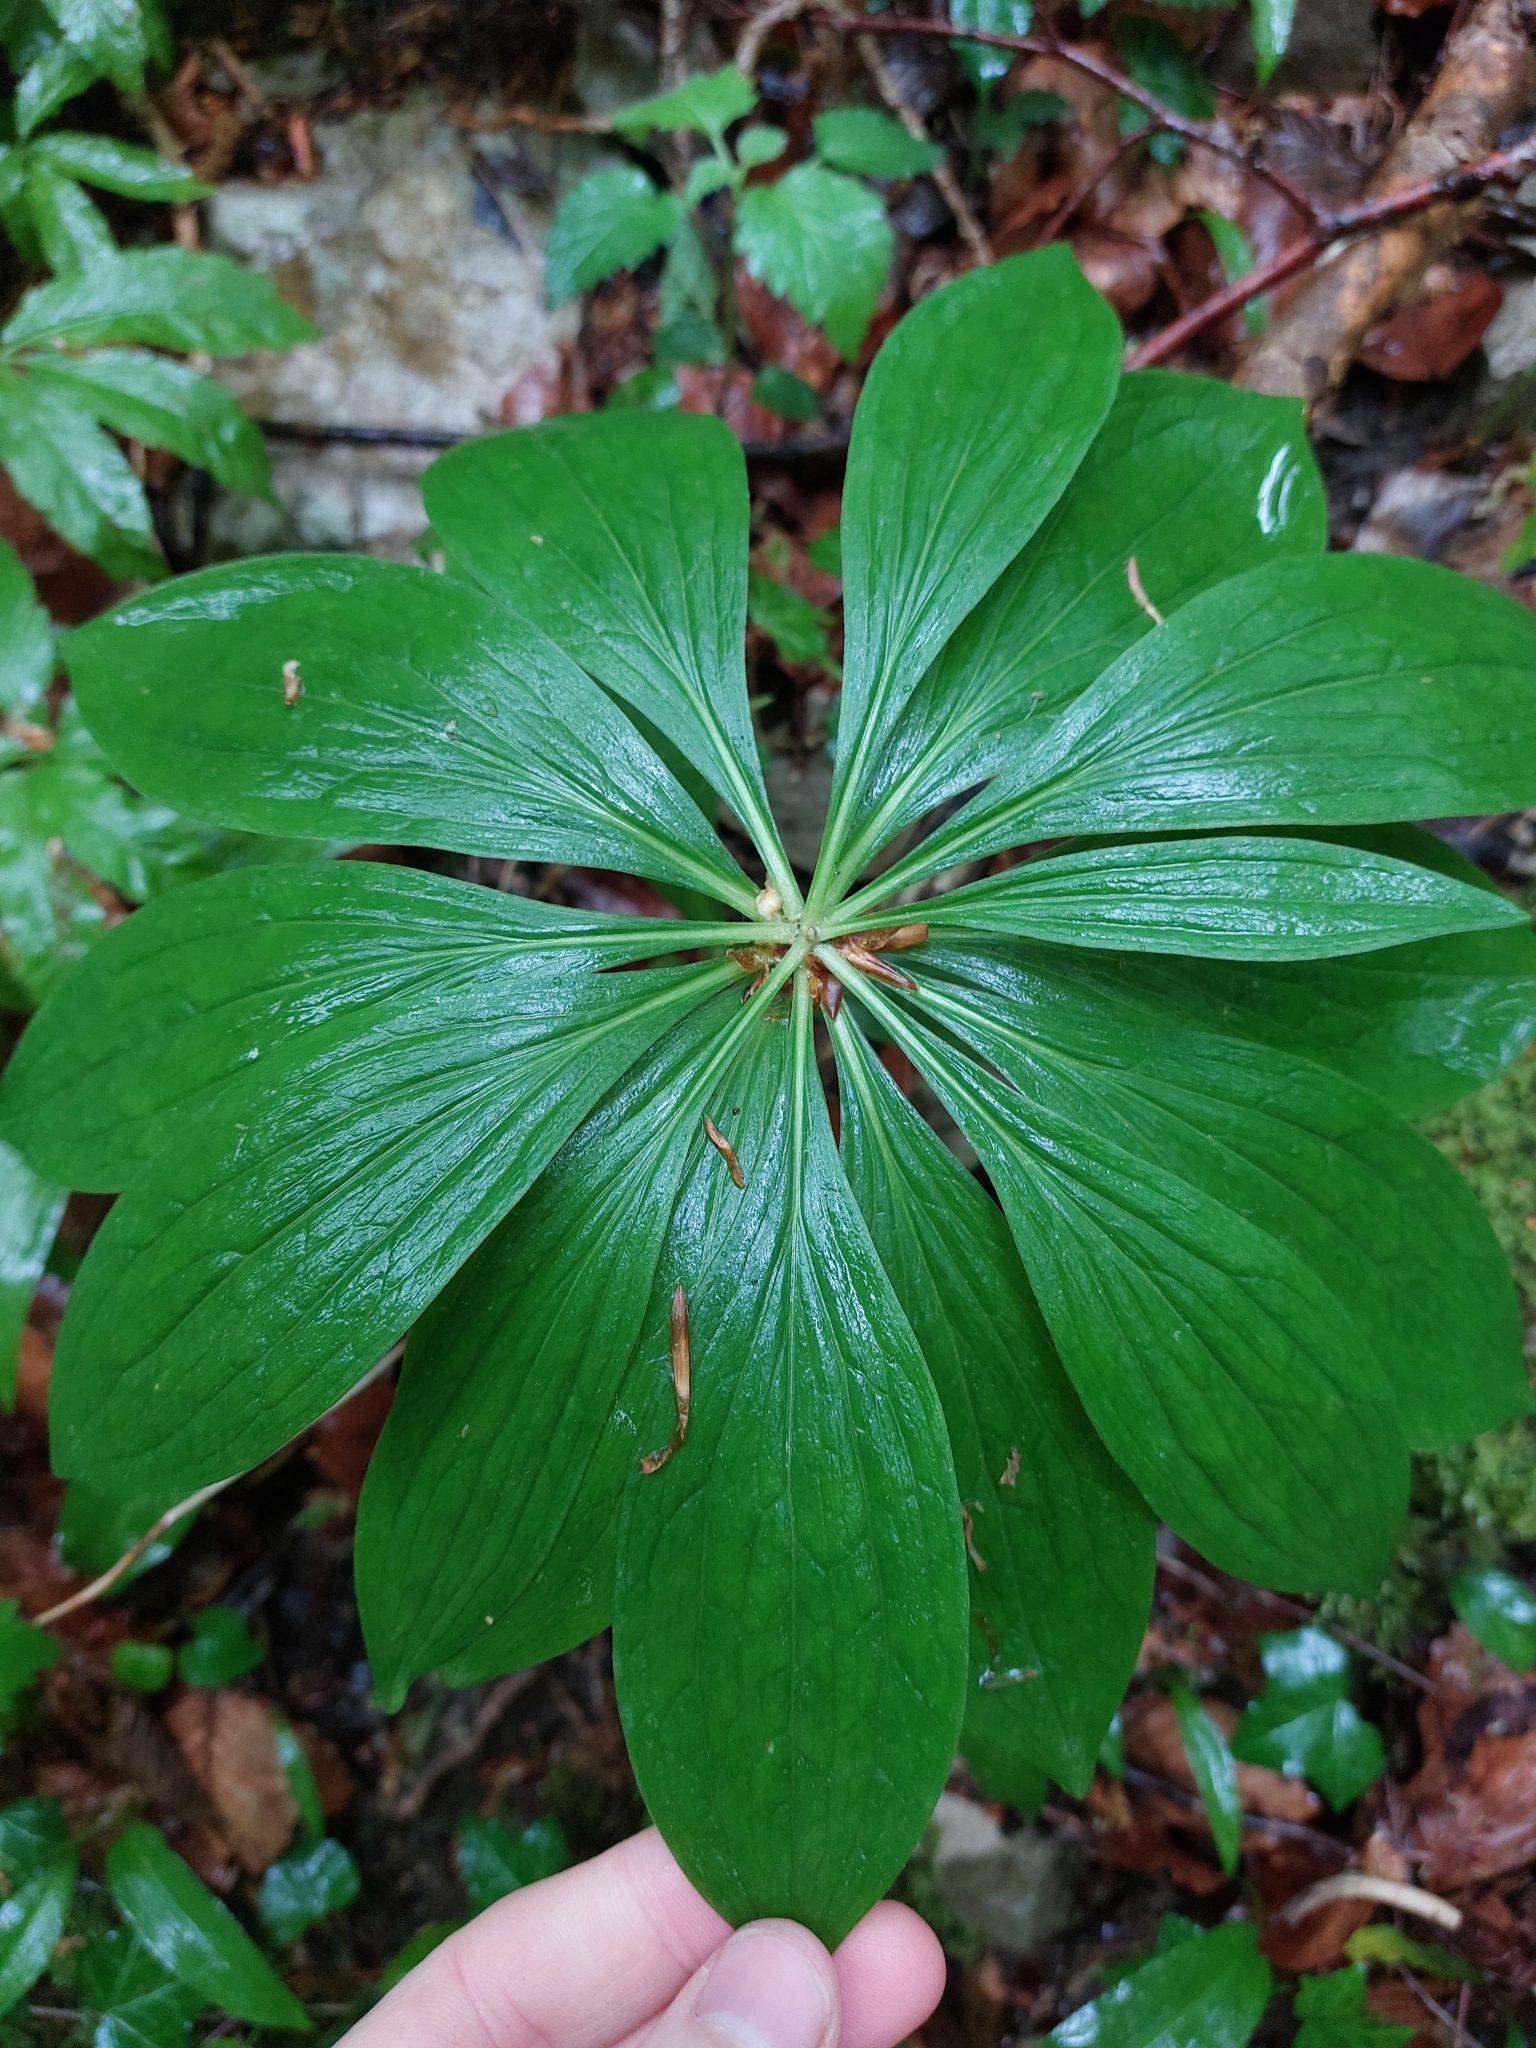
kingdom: Plantae
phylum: Tracheophyta
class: Liliopsida
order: Liliales
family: Liliaceae
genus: Lilium
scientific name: Lilium martagon
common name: Martagon lily
